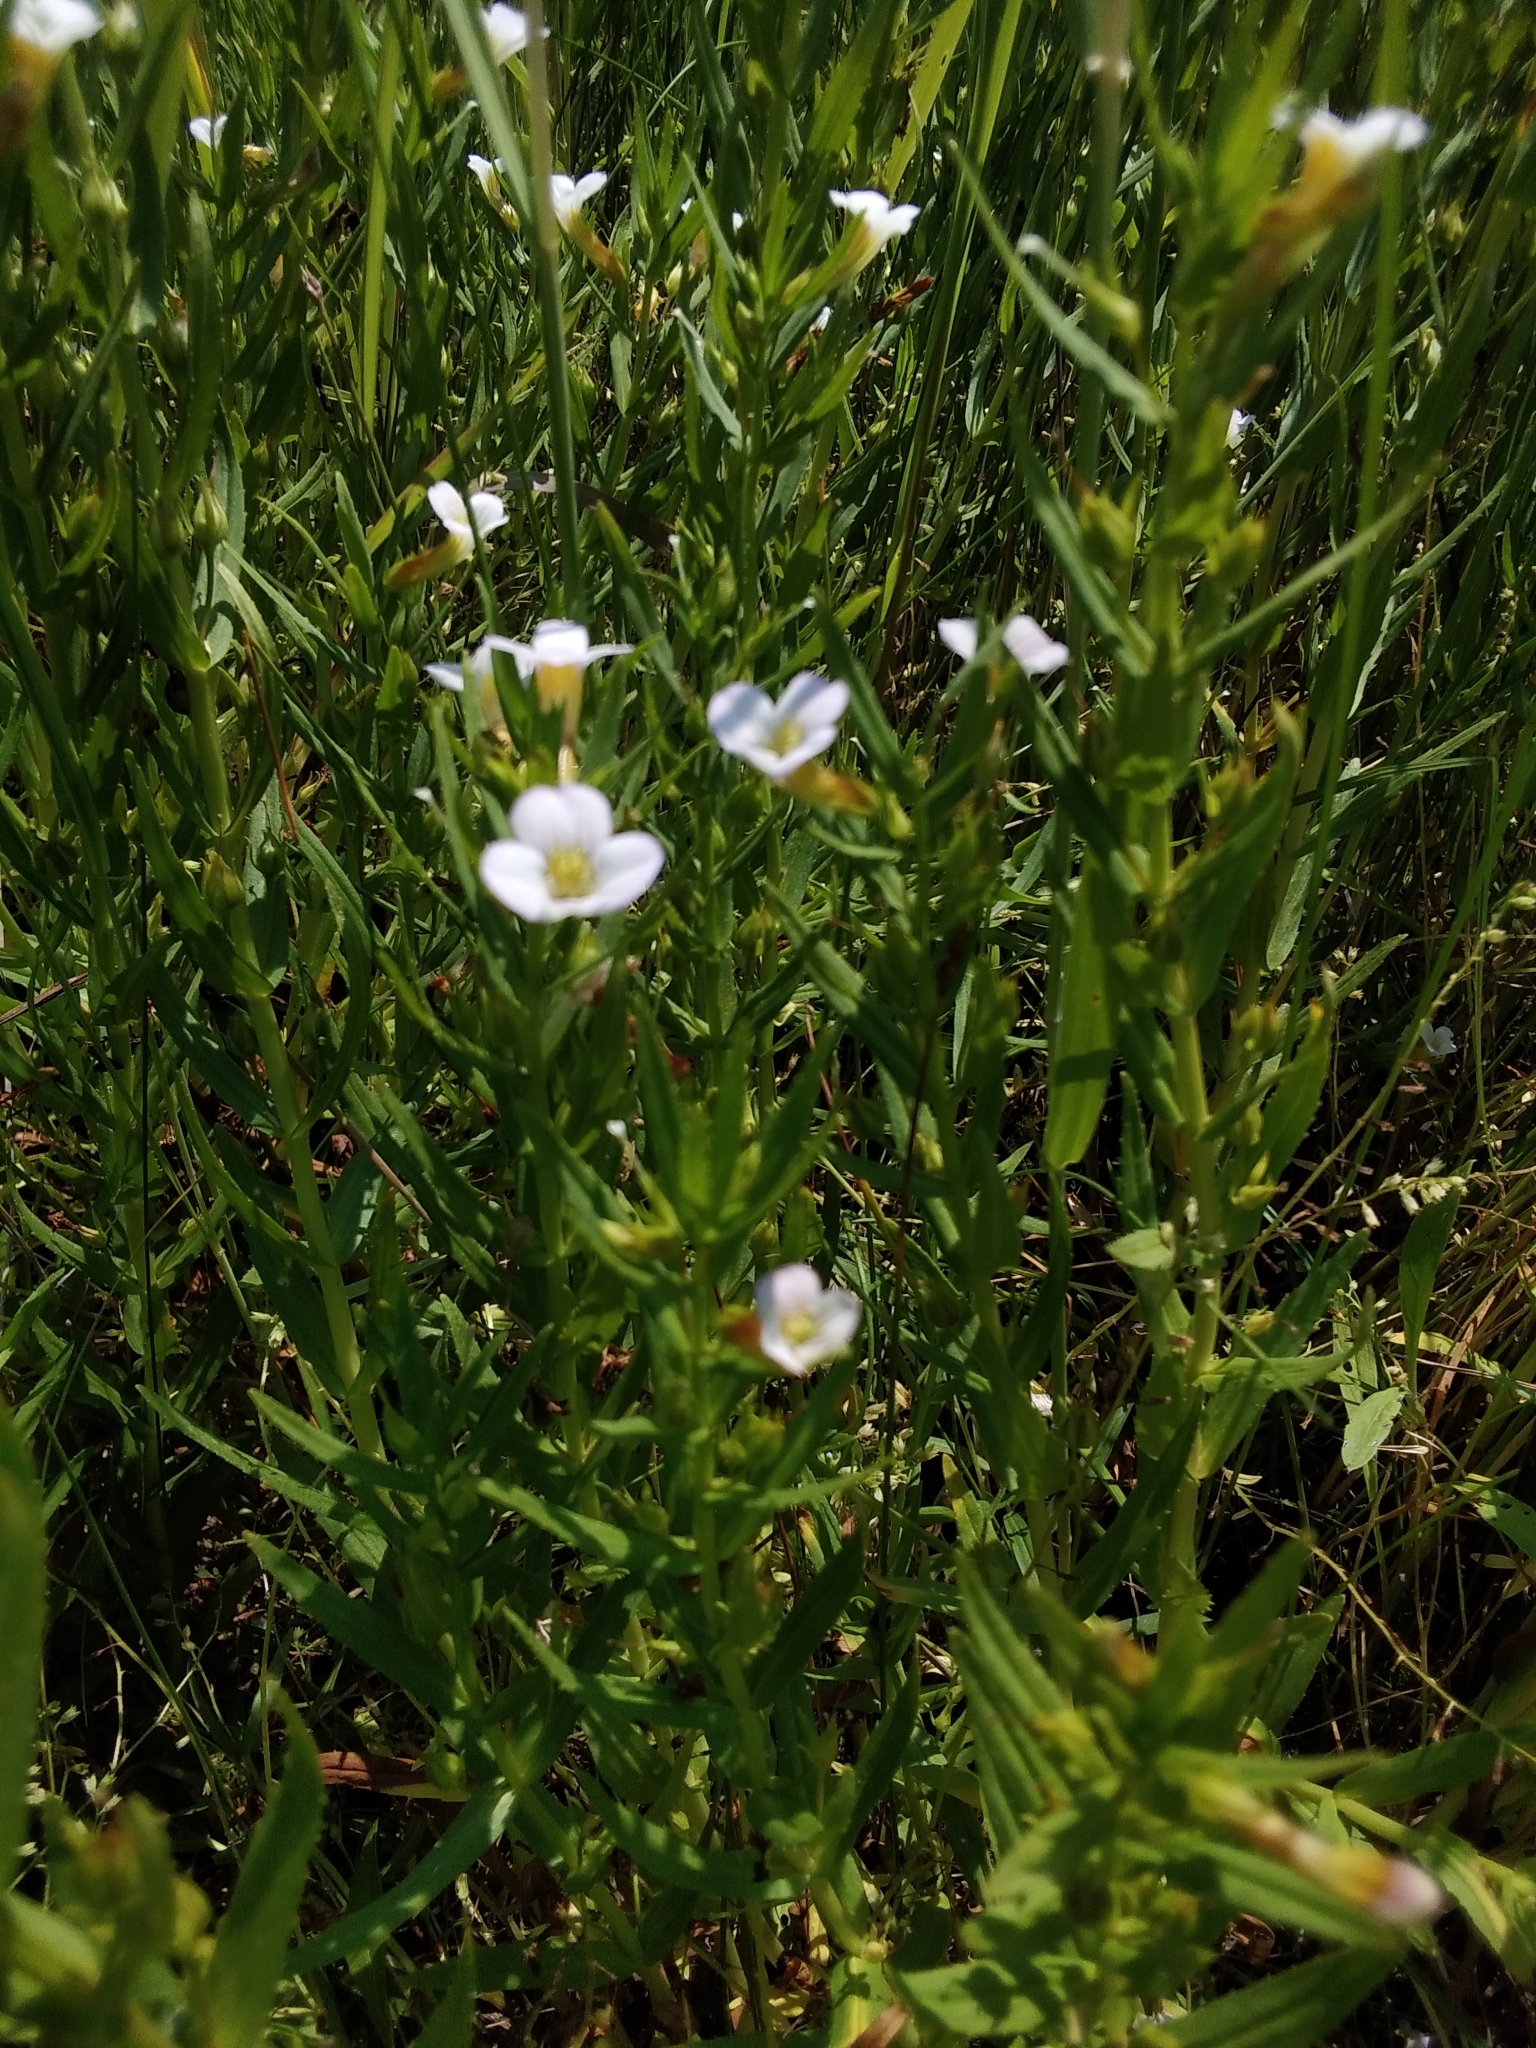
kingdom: Plantae
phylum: Tracheophyta
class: Magnoliopsida
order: Lamiales
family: Plantaginaceae
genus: Gratiola
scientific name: Gratiola officinalis
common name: Gratiola
